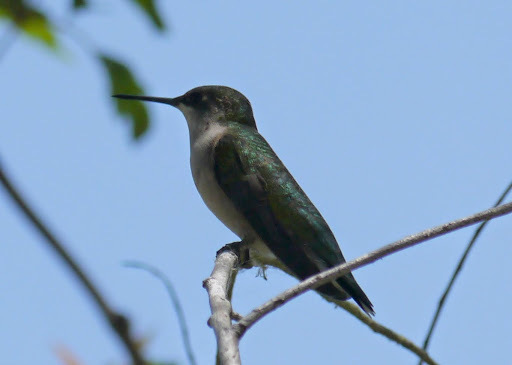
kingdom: Animalia
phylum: Chordata
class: Aves
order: Apodiformes
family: Trochilidae
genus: Archilochus
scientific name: Archilochus colubris
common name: Ruby-throated hummingbird
